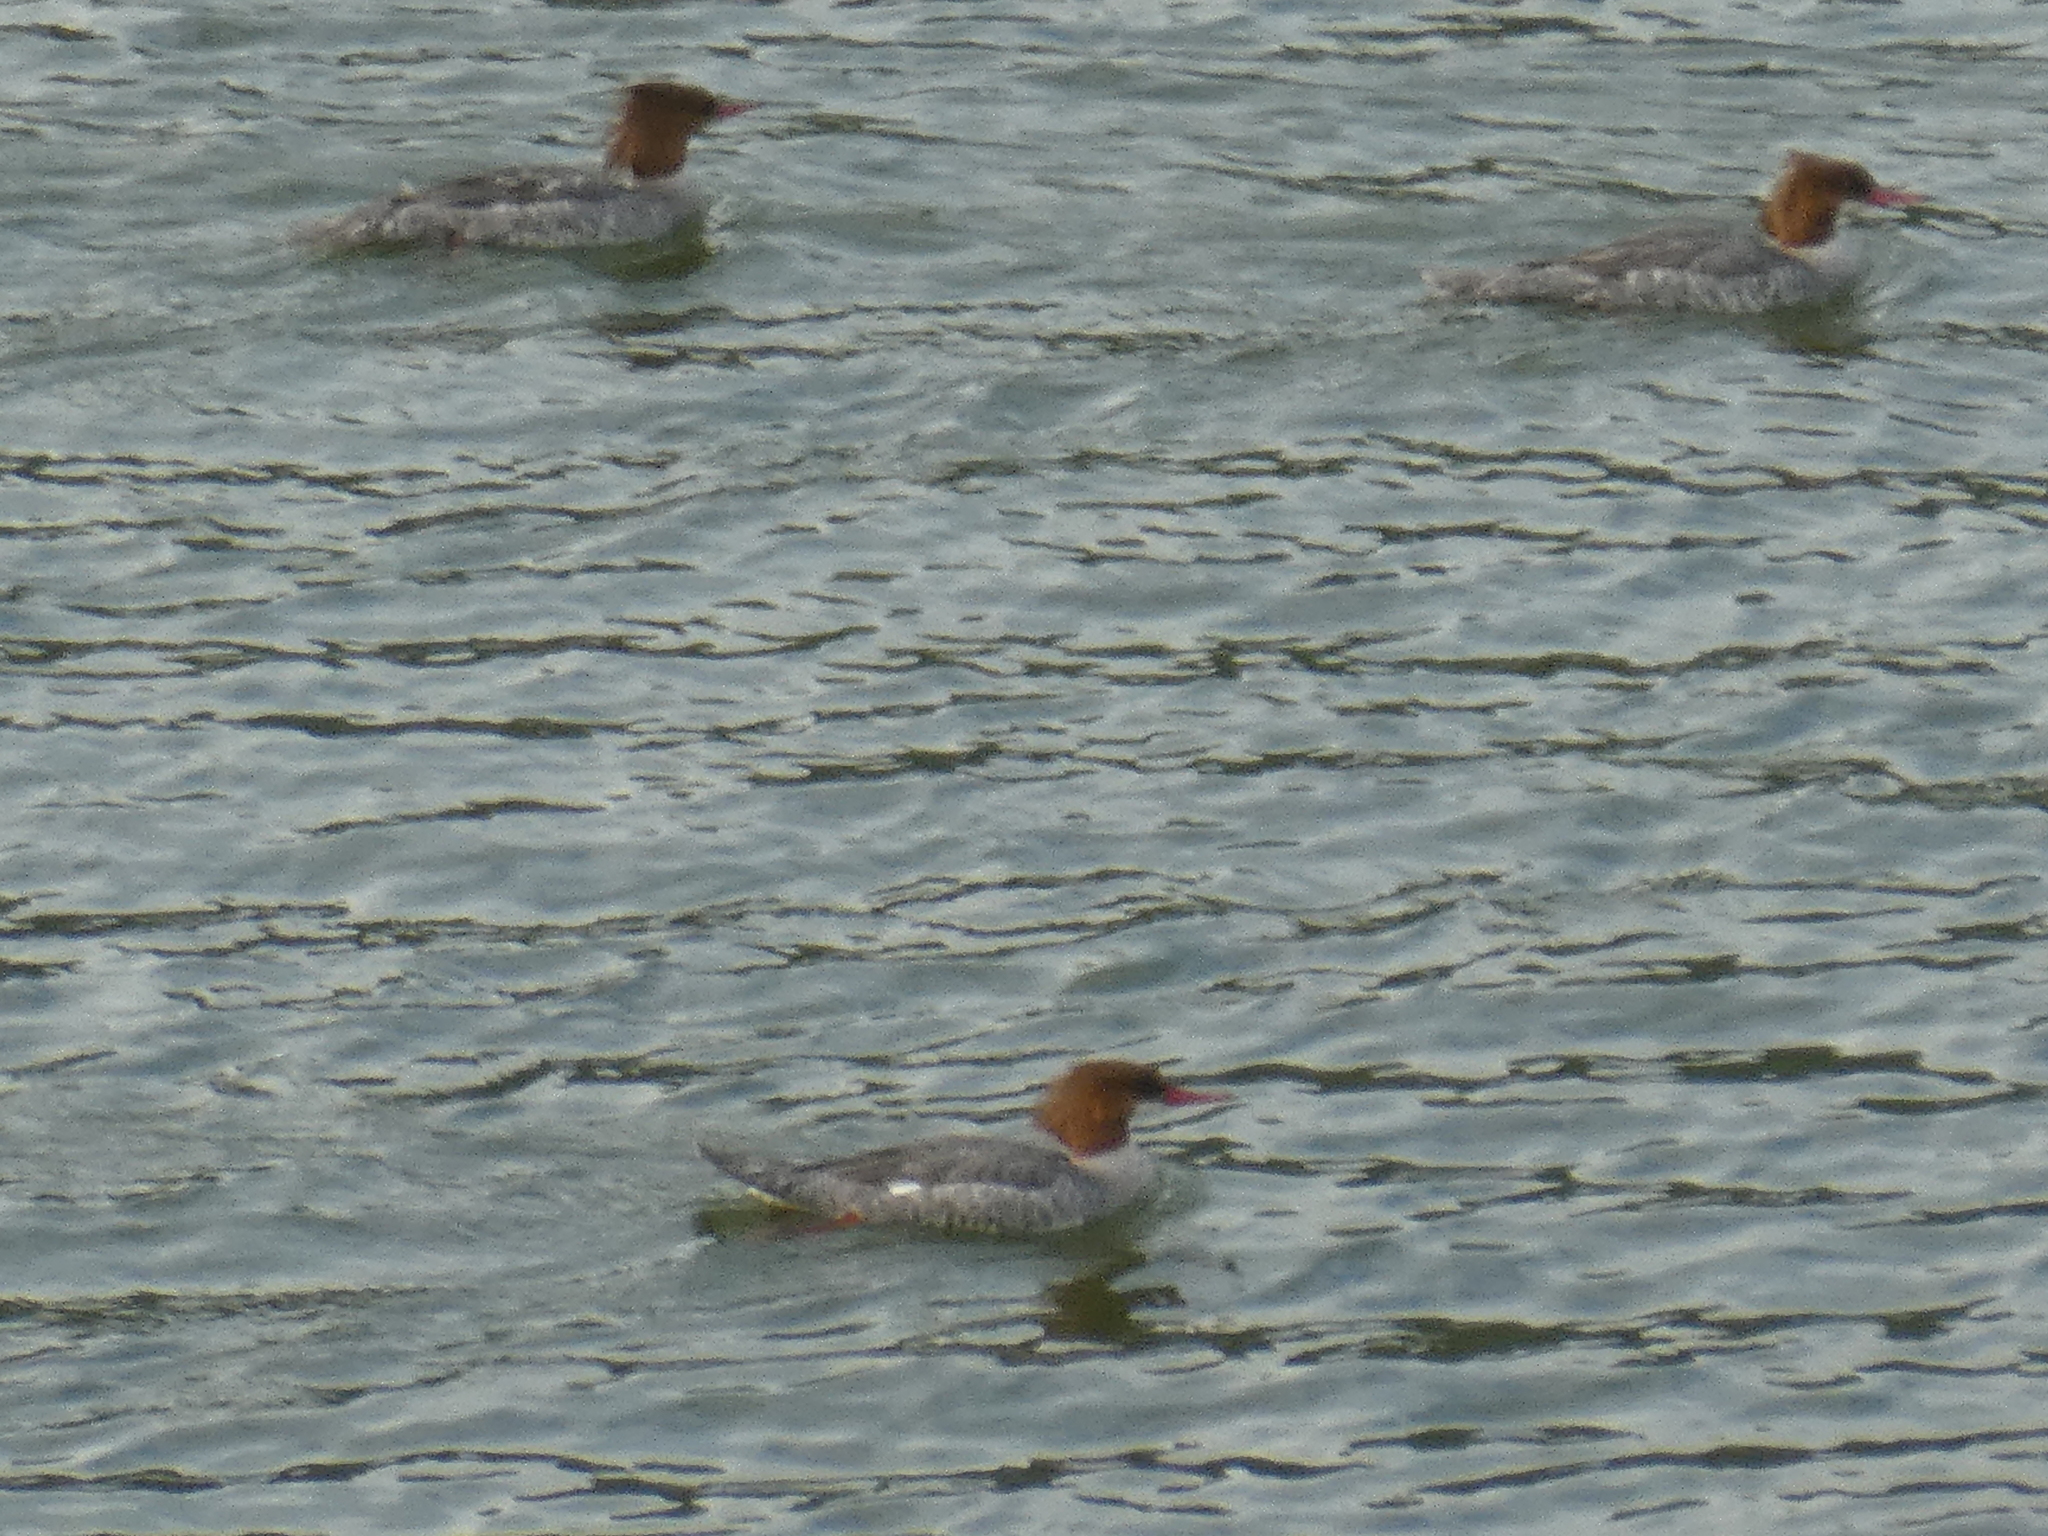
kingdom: Animalia
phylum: Chordata
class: Aves
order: Anseriformes
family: Anatidae
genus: Mergus
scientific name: Mergus merganser
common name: Common merganser
